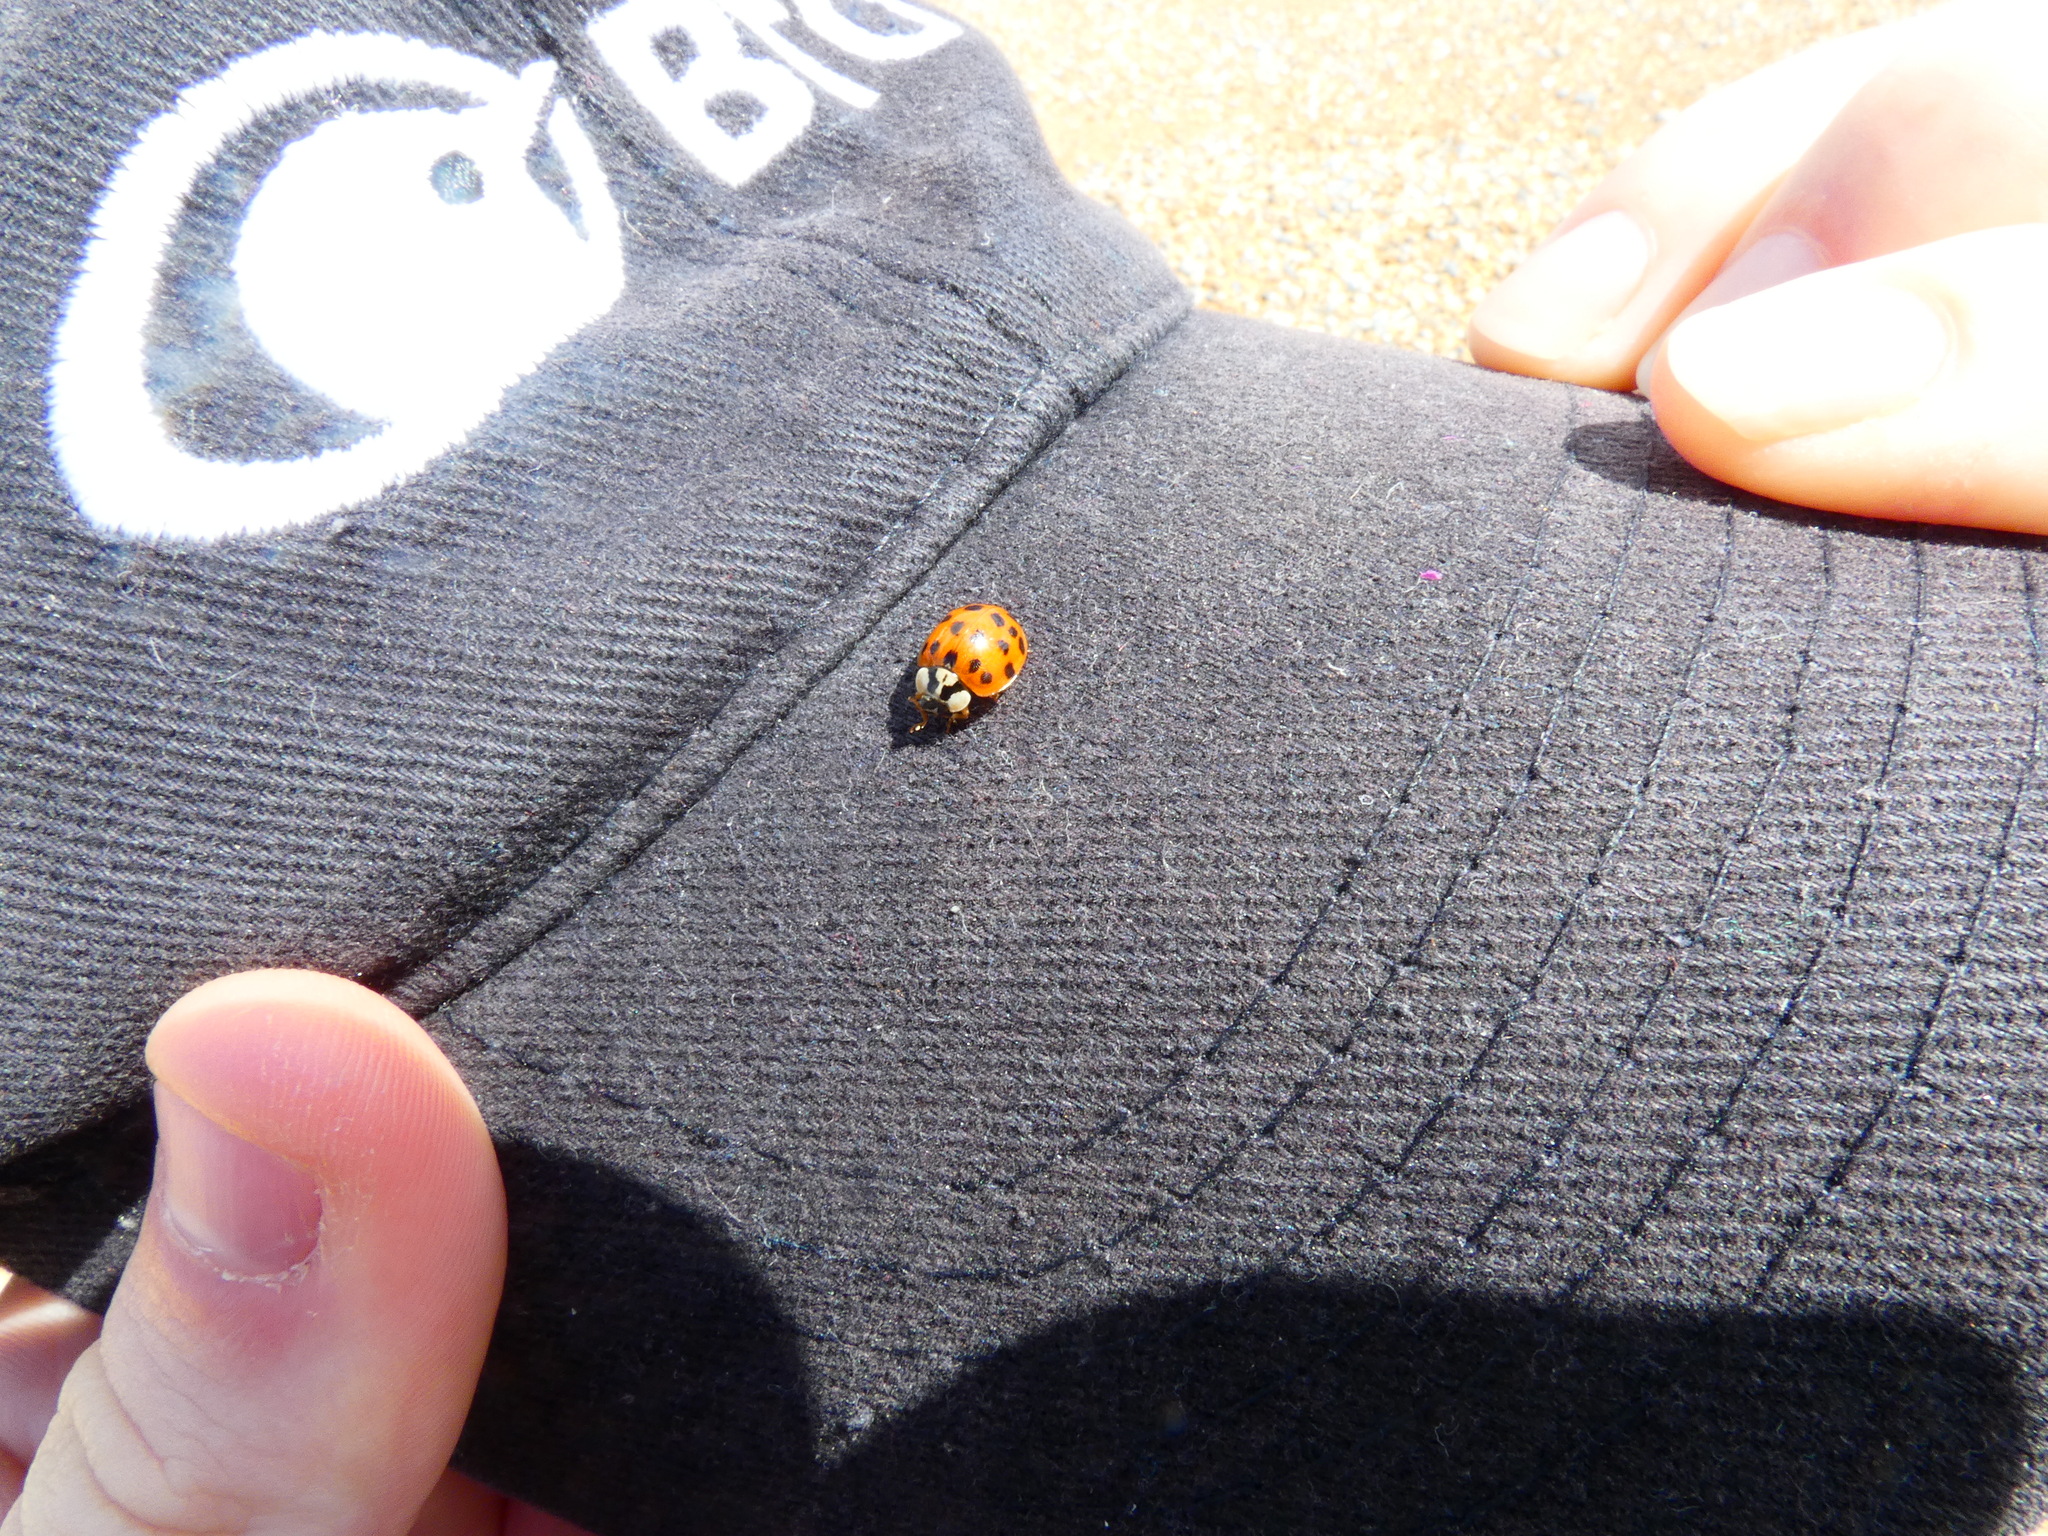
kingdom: Animalia
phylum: Arthropoda
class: Insecta
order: Coleoptera
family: Coccinellidae
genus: Harmonia
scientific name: Harmonia axyridis
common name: Harlequin ladybird
